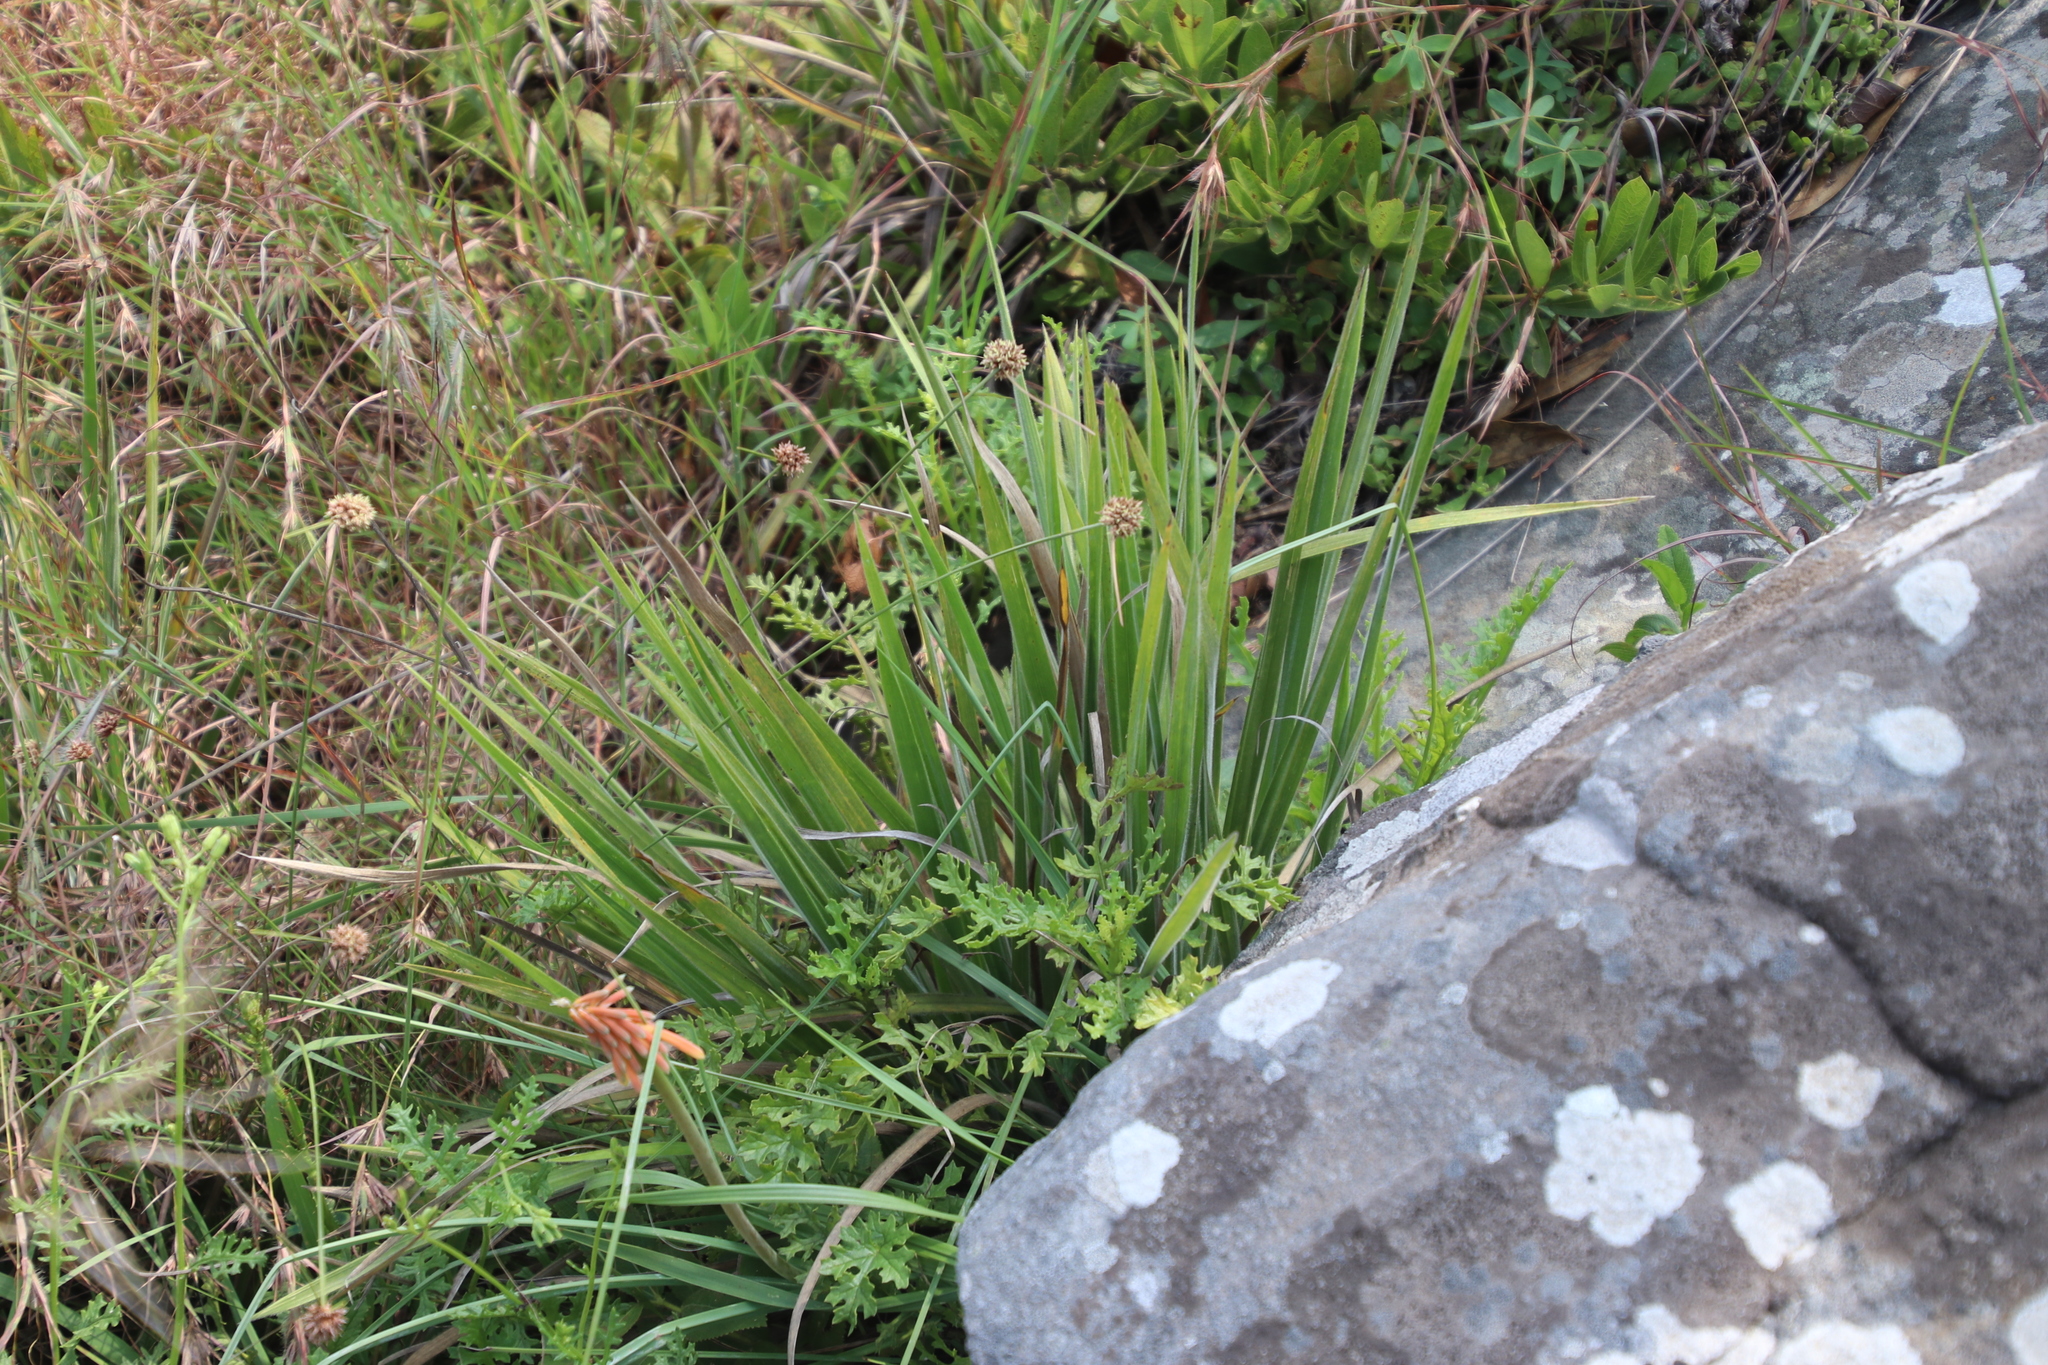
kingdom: Plantae
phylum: Tracheophyta
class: Liliopsida
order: Asparagales
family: Asphodelaceae
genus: Kniphofia
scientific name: Kniphofia galpinii
